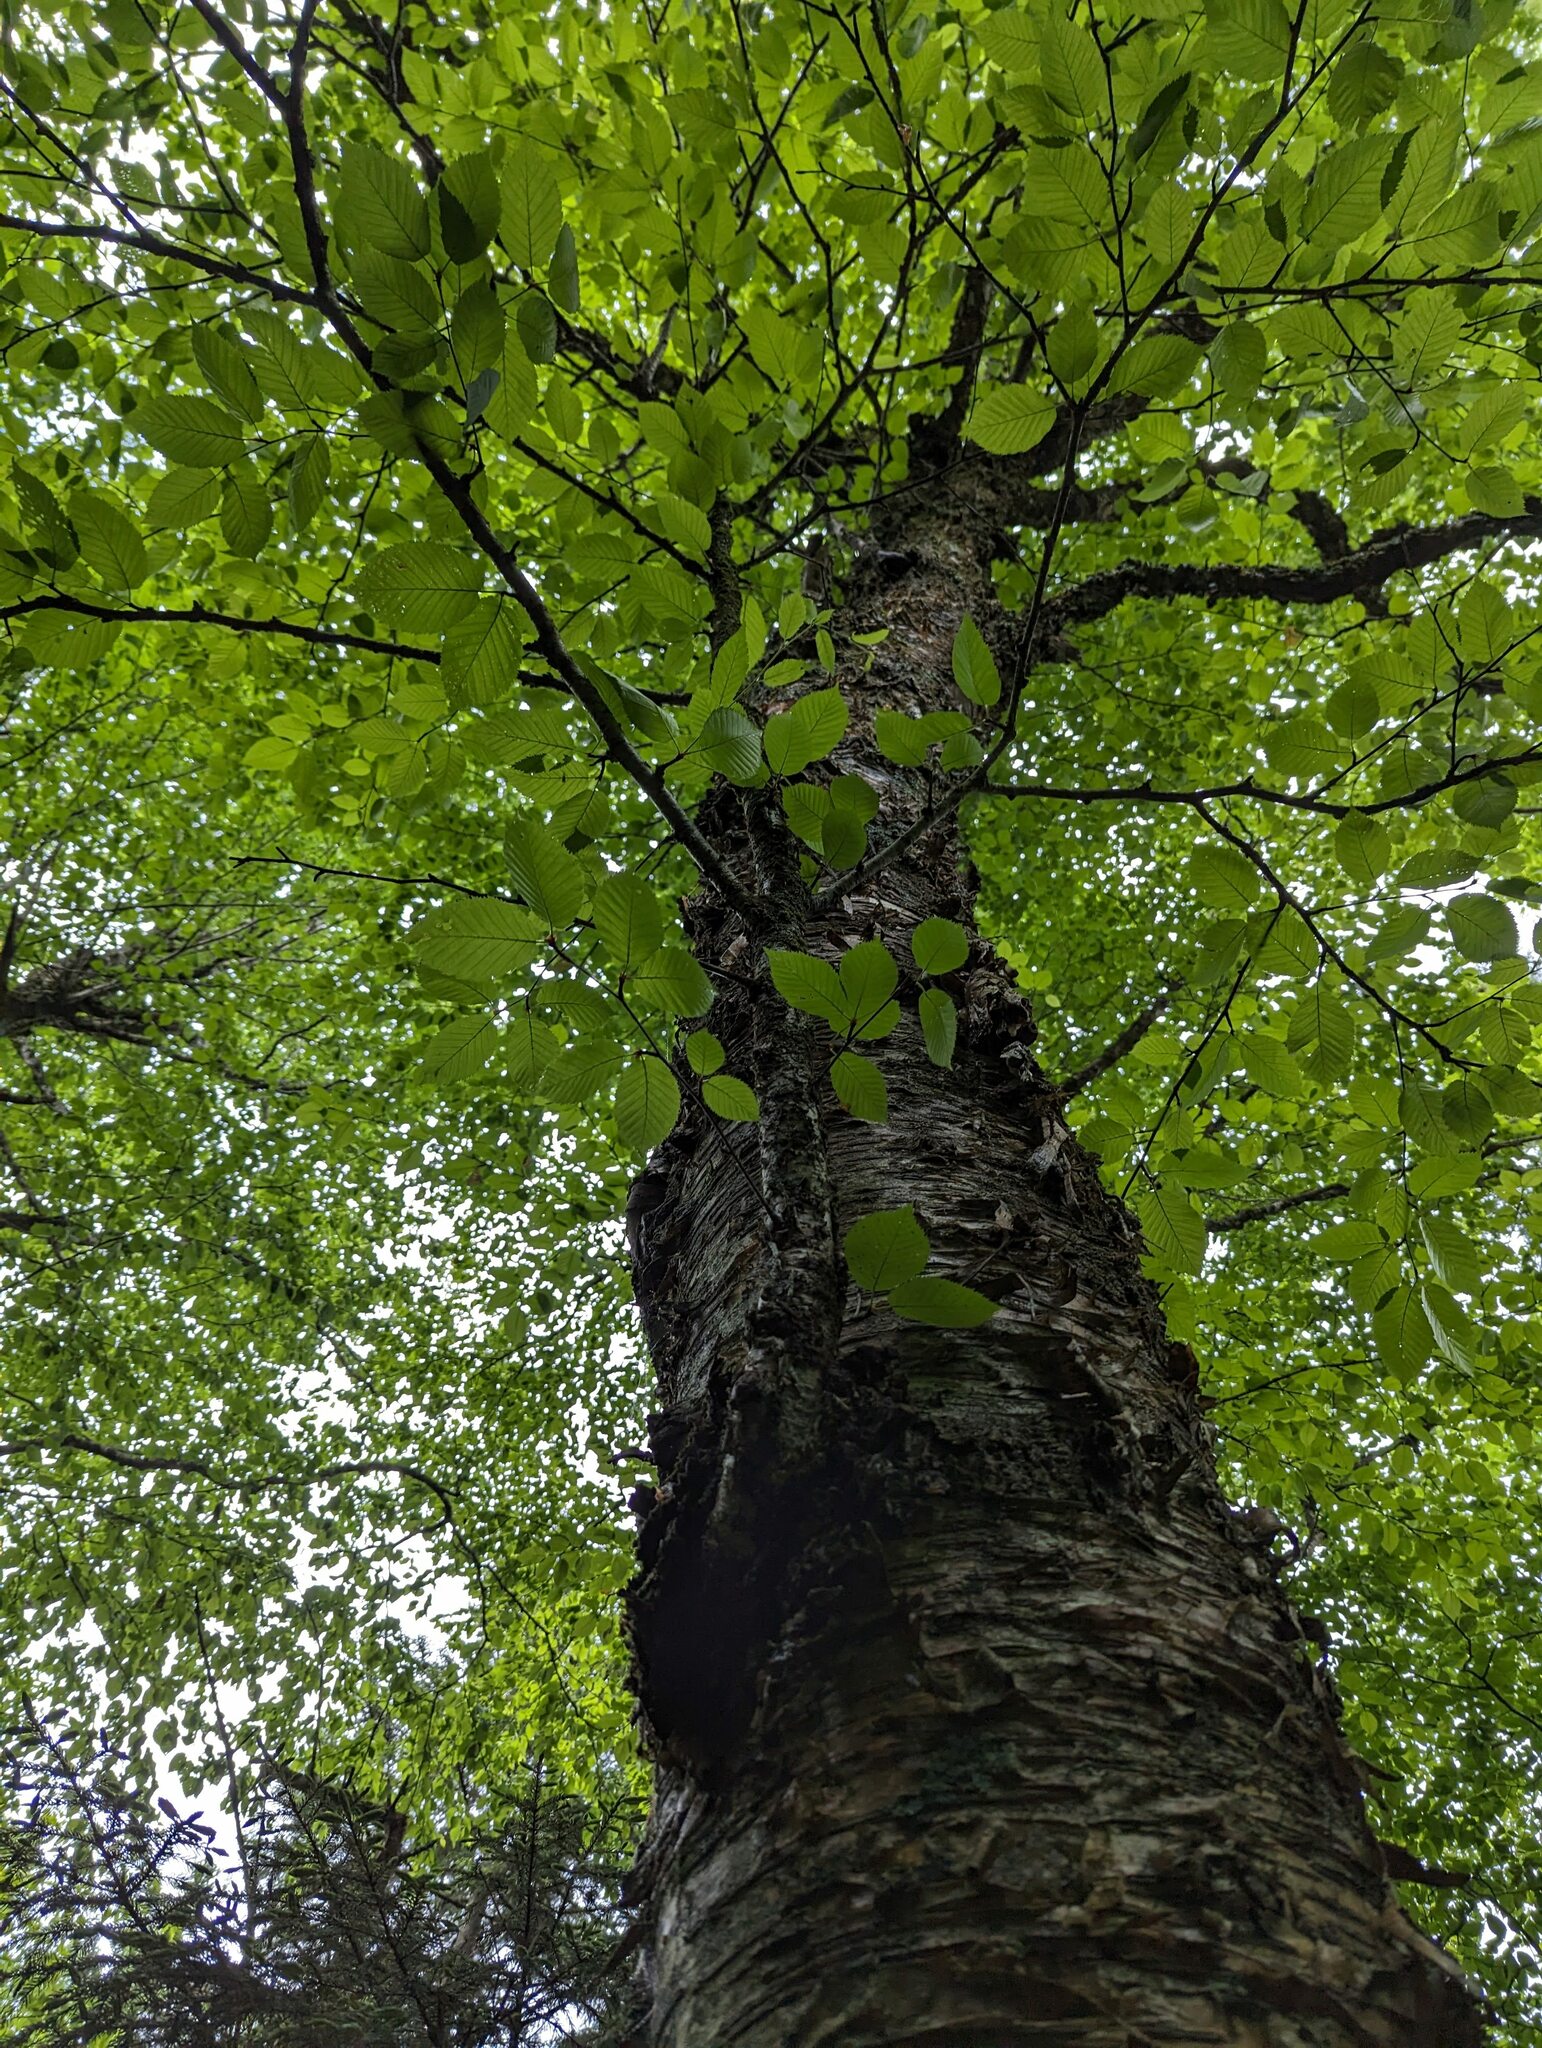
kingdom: Plantae
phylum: Tracheophyta
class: Magnoliopsida
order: Fagales
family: Betulaceae
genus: Betula
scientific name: Betula alleghaniensis
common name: Yellow birch
